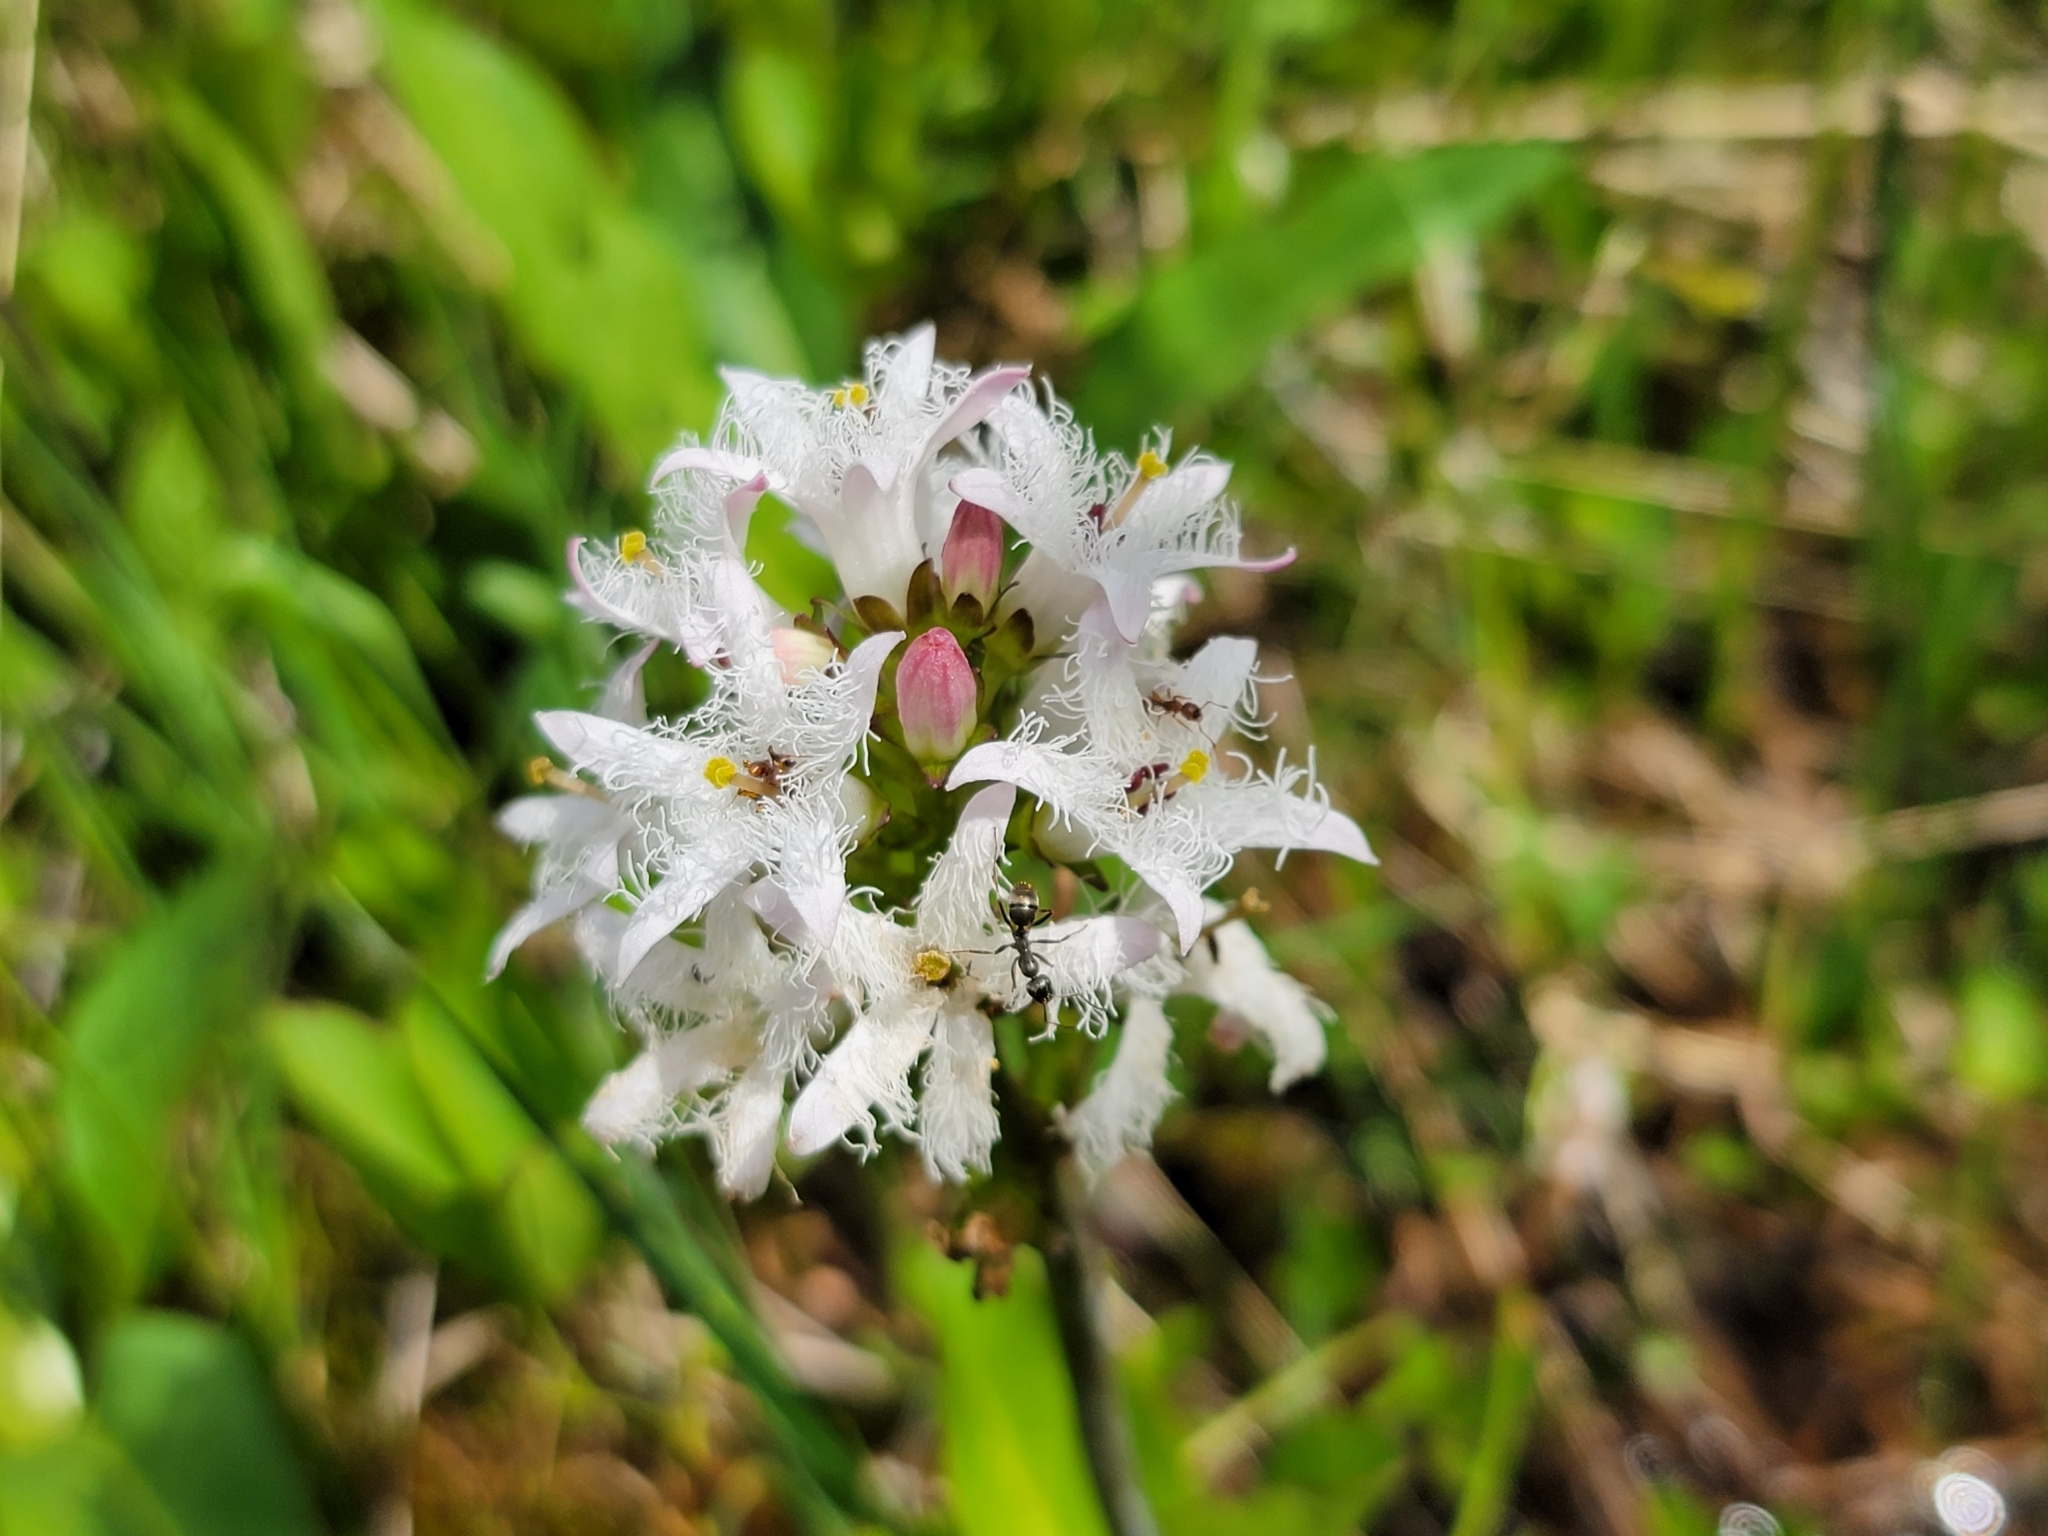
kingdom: Plantae
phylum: Tracheophyta
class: Magnoliopsida
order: Asterales
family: Menyanthaceae
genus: Menyanthes
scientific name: Menyanthes trifoliata
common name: Bogbean
